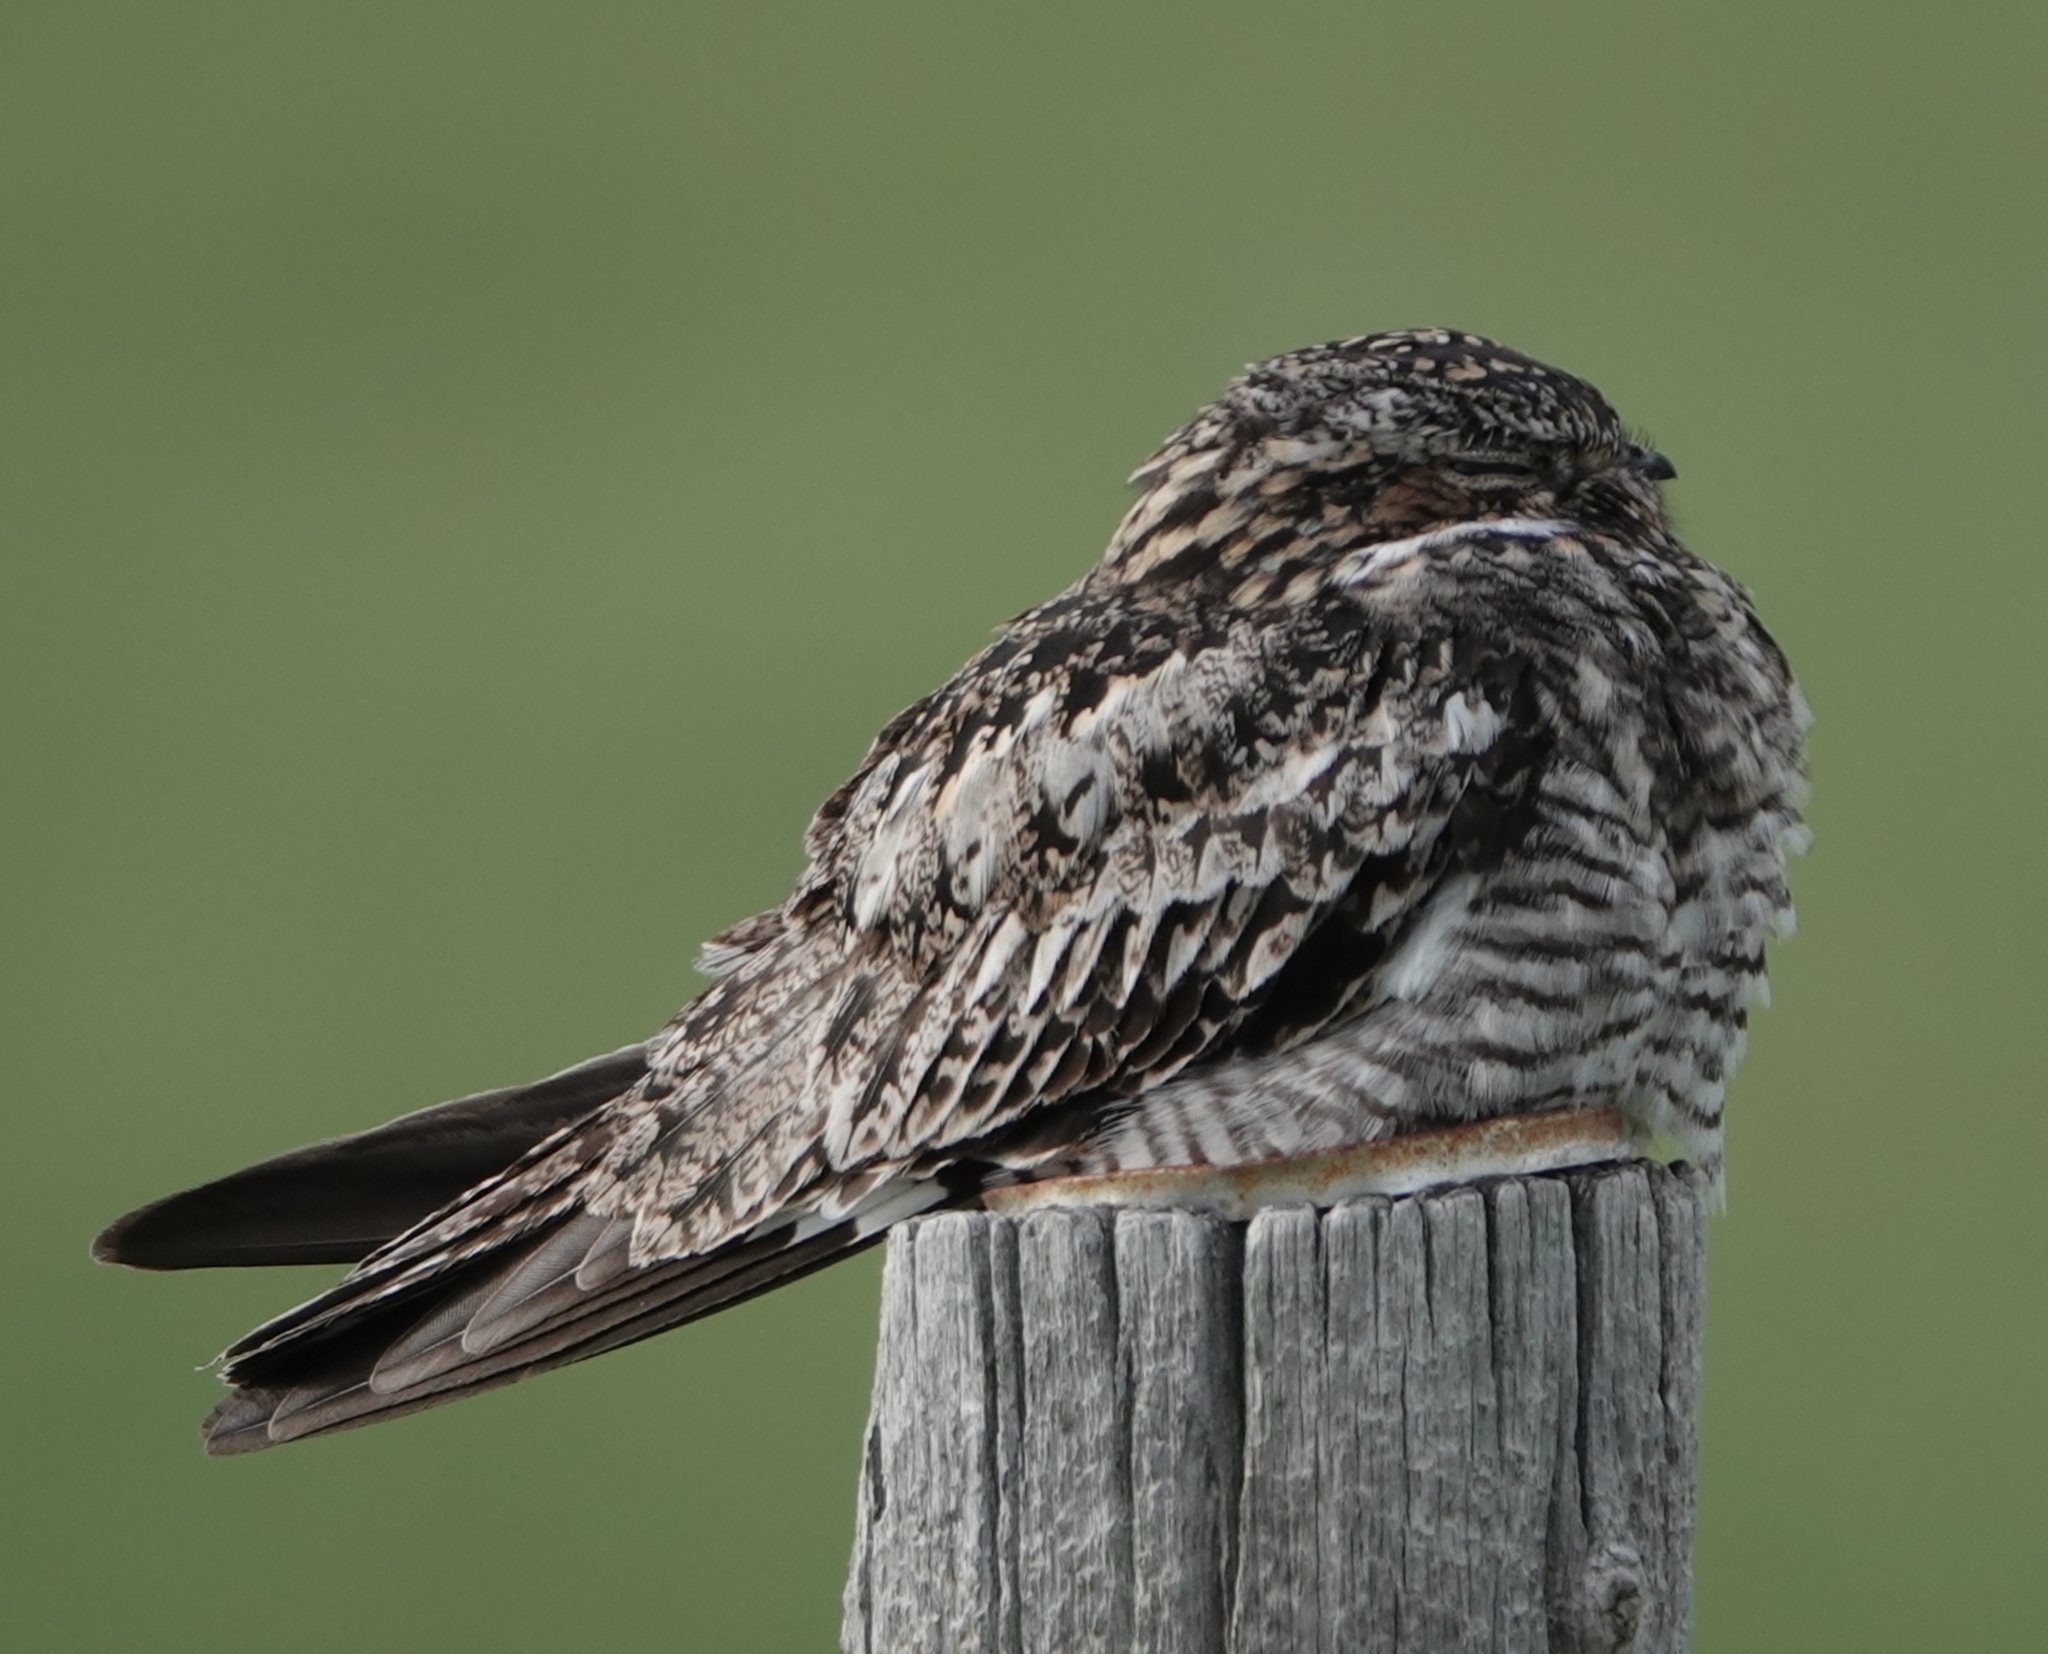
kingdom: Animalia
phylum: Chordata
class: Aves
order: Caprimulgiformes
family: Caprimulgidae
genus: Chordeiles
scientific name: Chordeiles minor
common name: Common nighthawk
